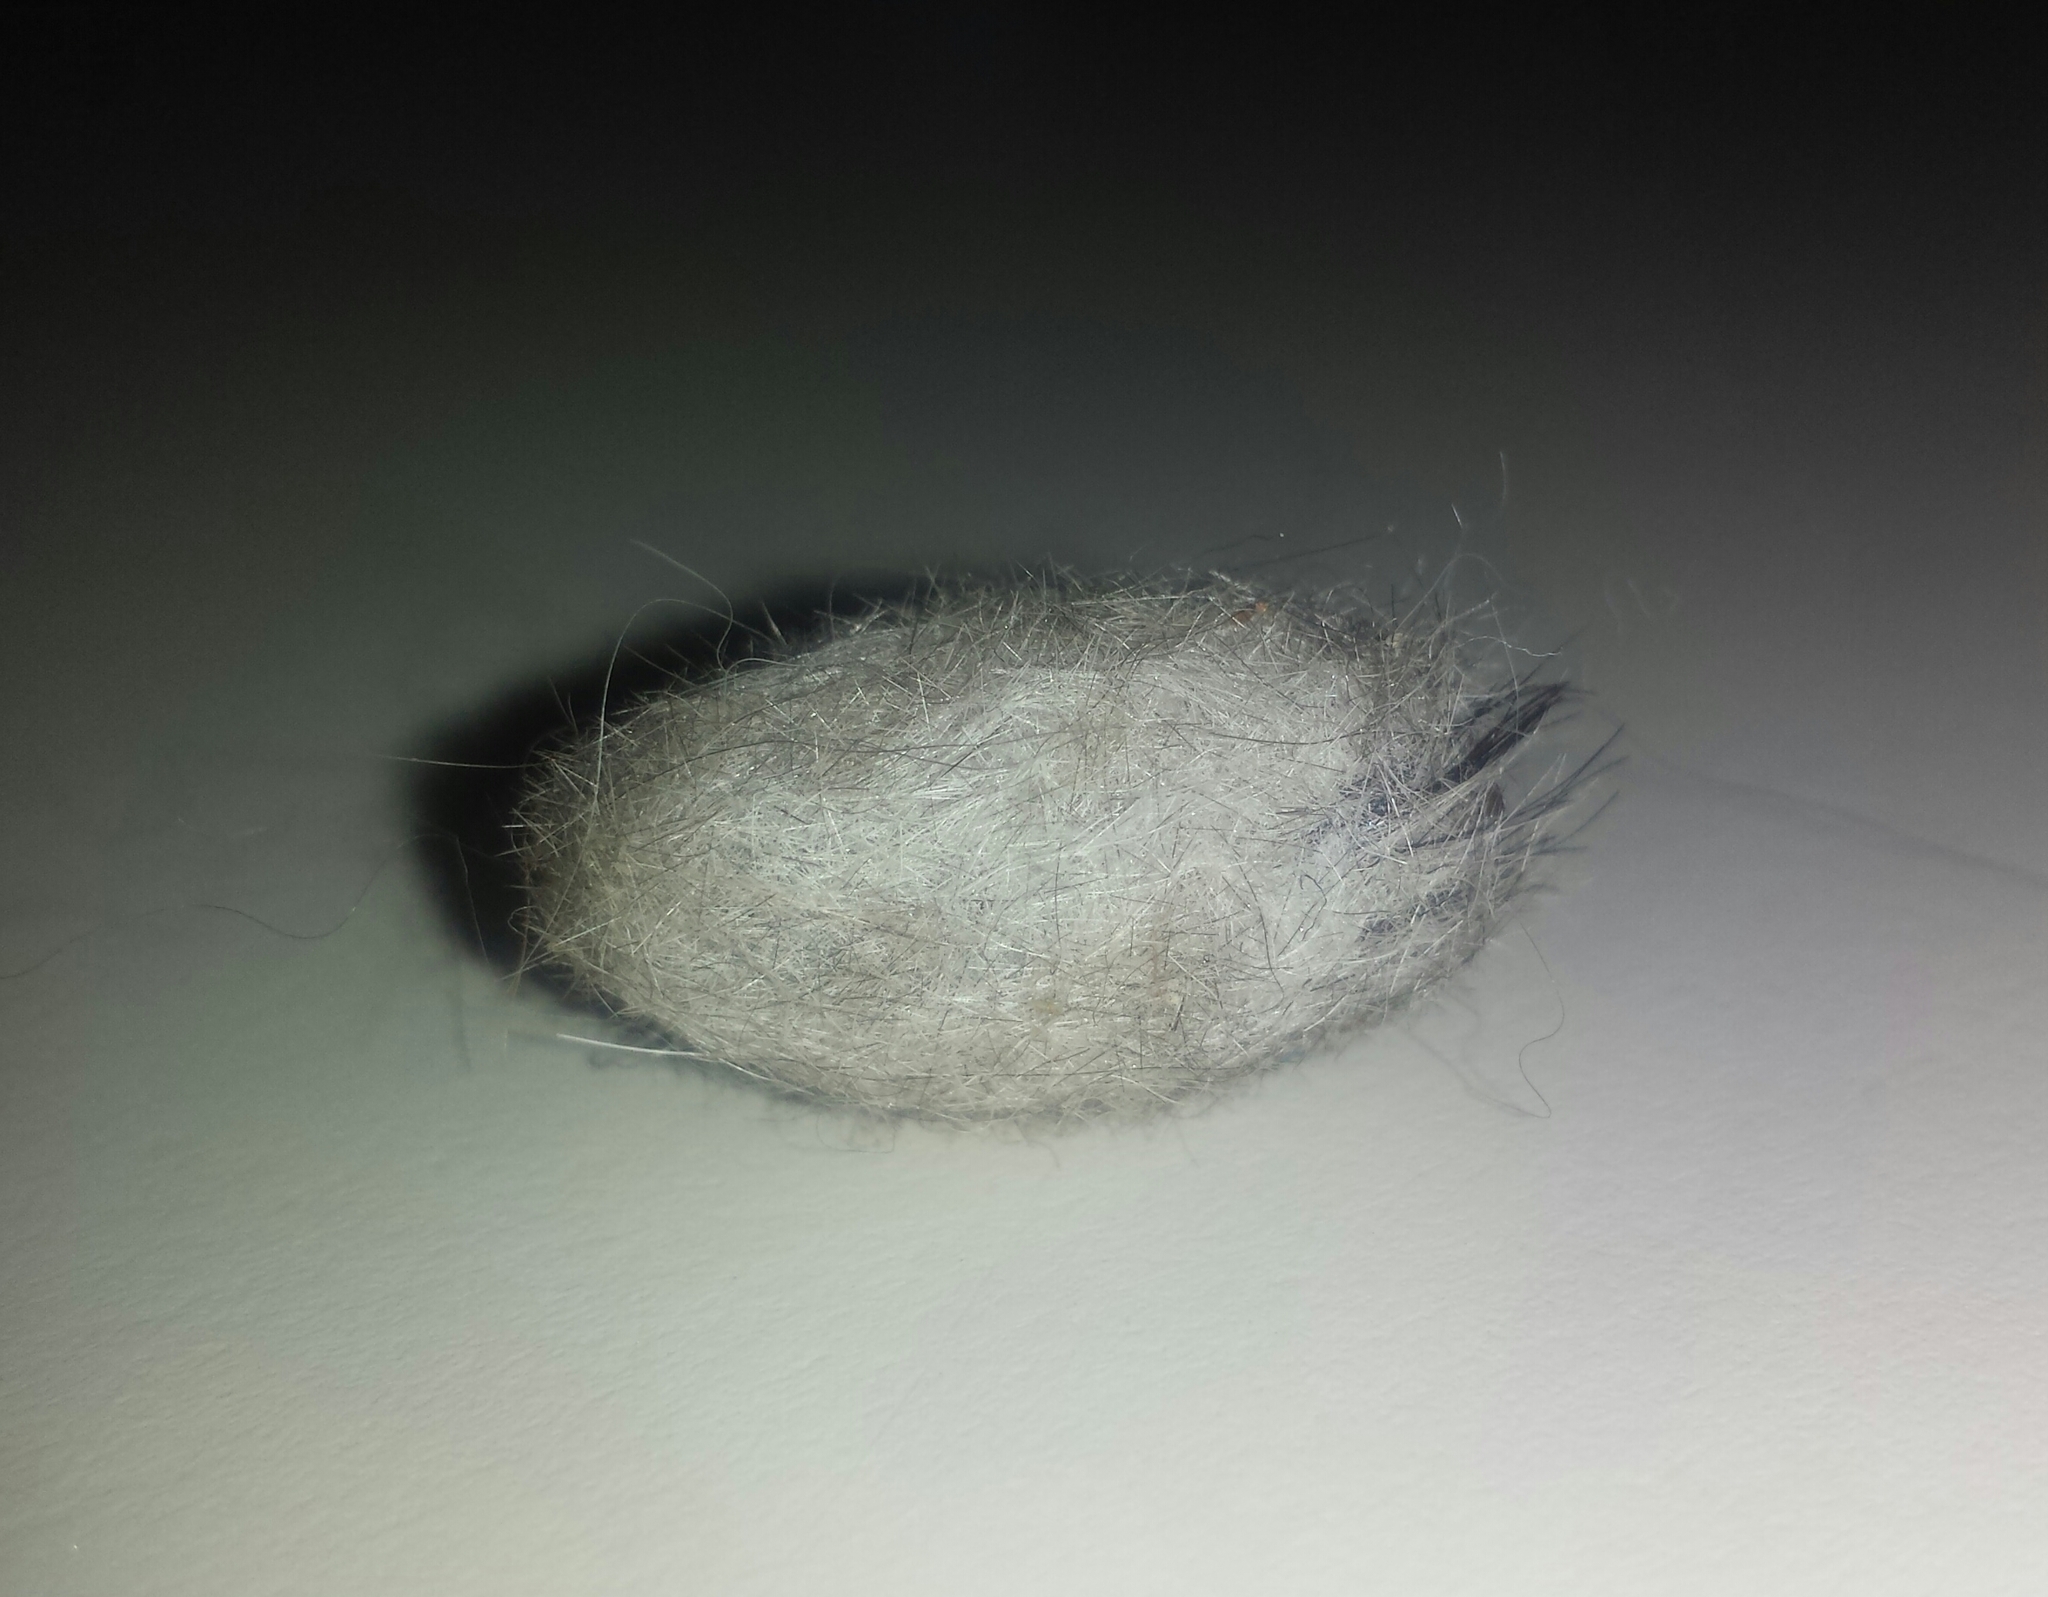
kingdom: Animalia
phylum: Arthropoda
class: Insecta
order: Lepidoptera
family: Erebidae
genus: Lophocampa
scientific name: Lophocampa caryae
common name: Hickory tussock moth
